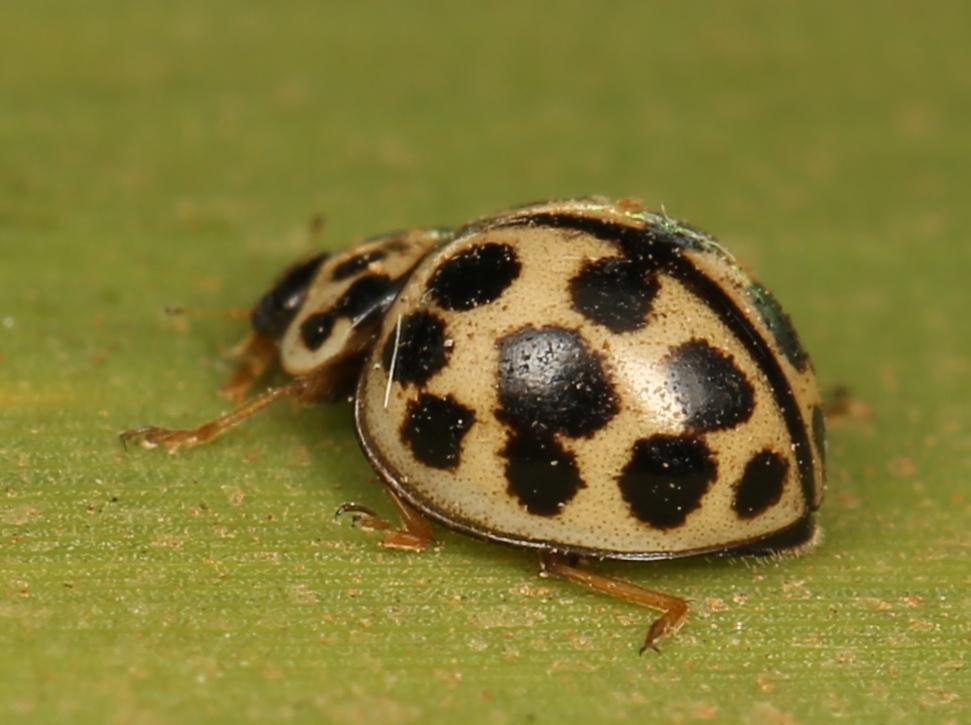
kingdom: Animalia
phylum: Arthropoda
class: Insecta
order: Coleoptera
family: Coccinellidae
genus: Bulaea
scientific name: Bulaea
